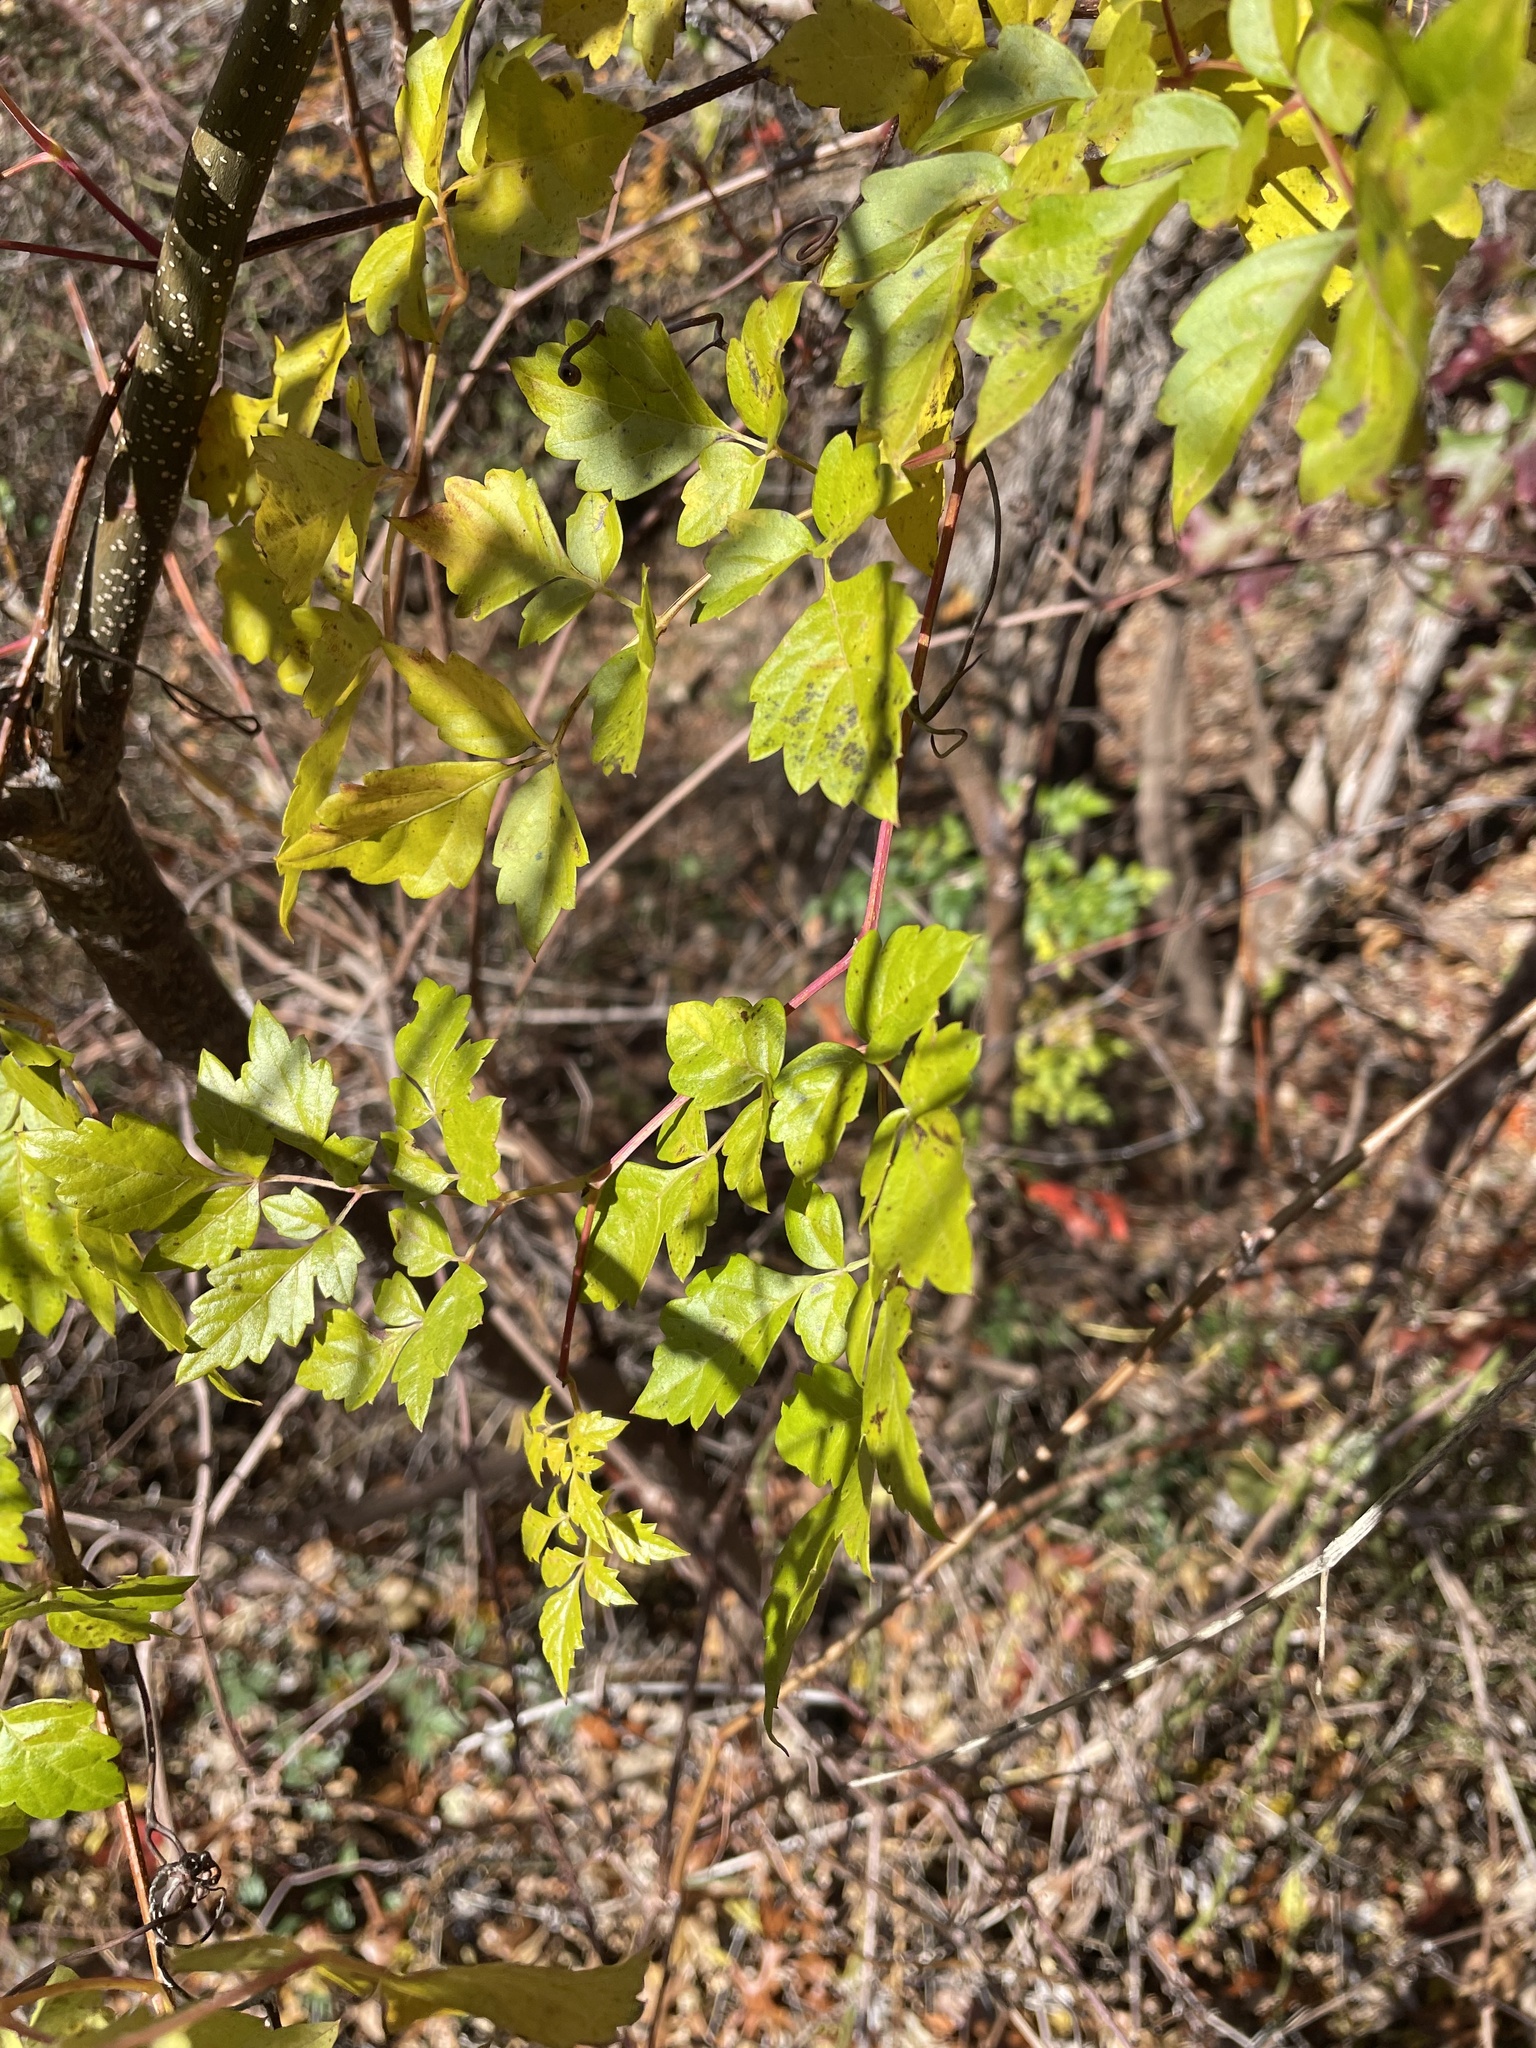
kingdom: Plantae
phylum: Tracheophyta
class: Magnoliopsida
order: Vitales
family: Vitaceae
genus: Nekemias
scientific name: Nekemias arborea
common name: Peppervine
